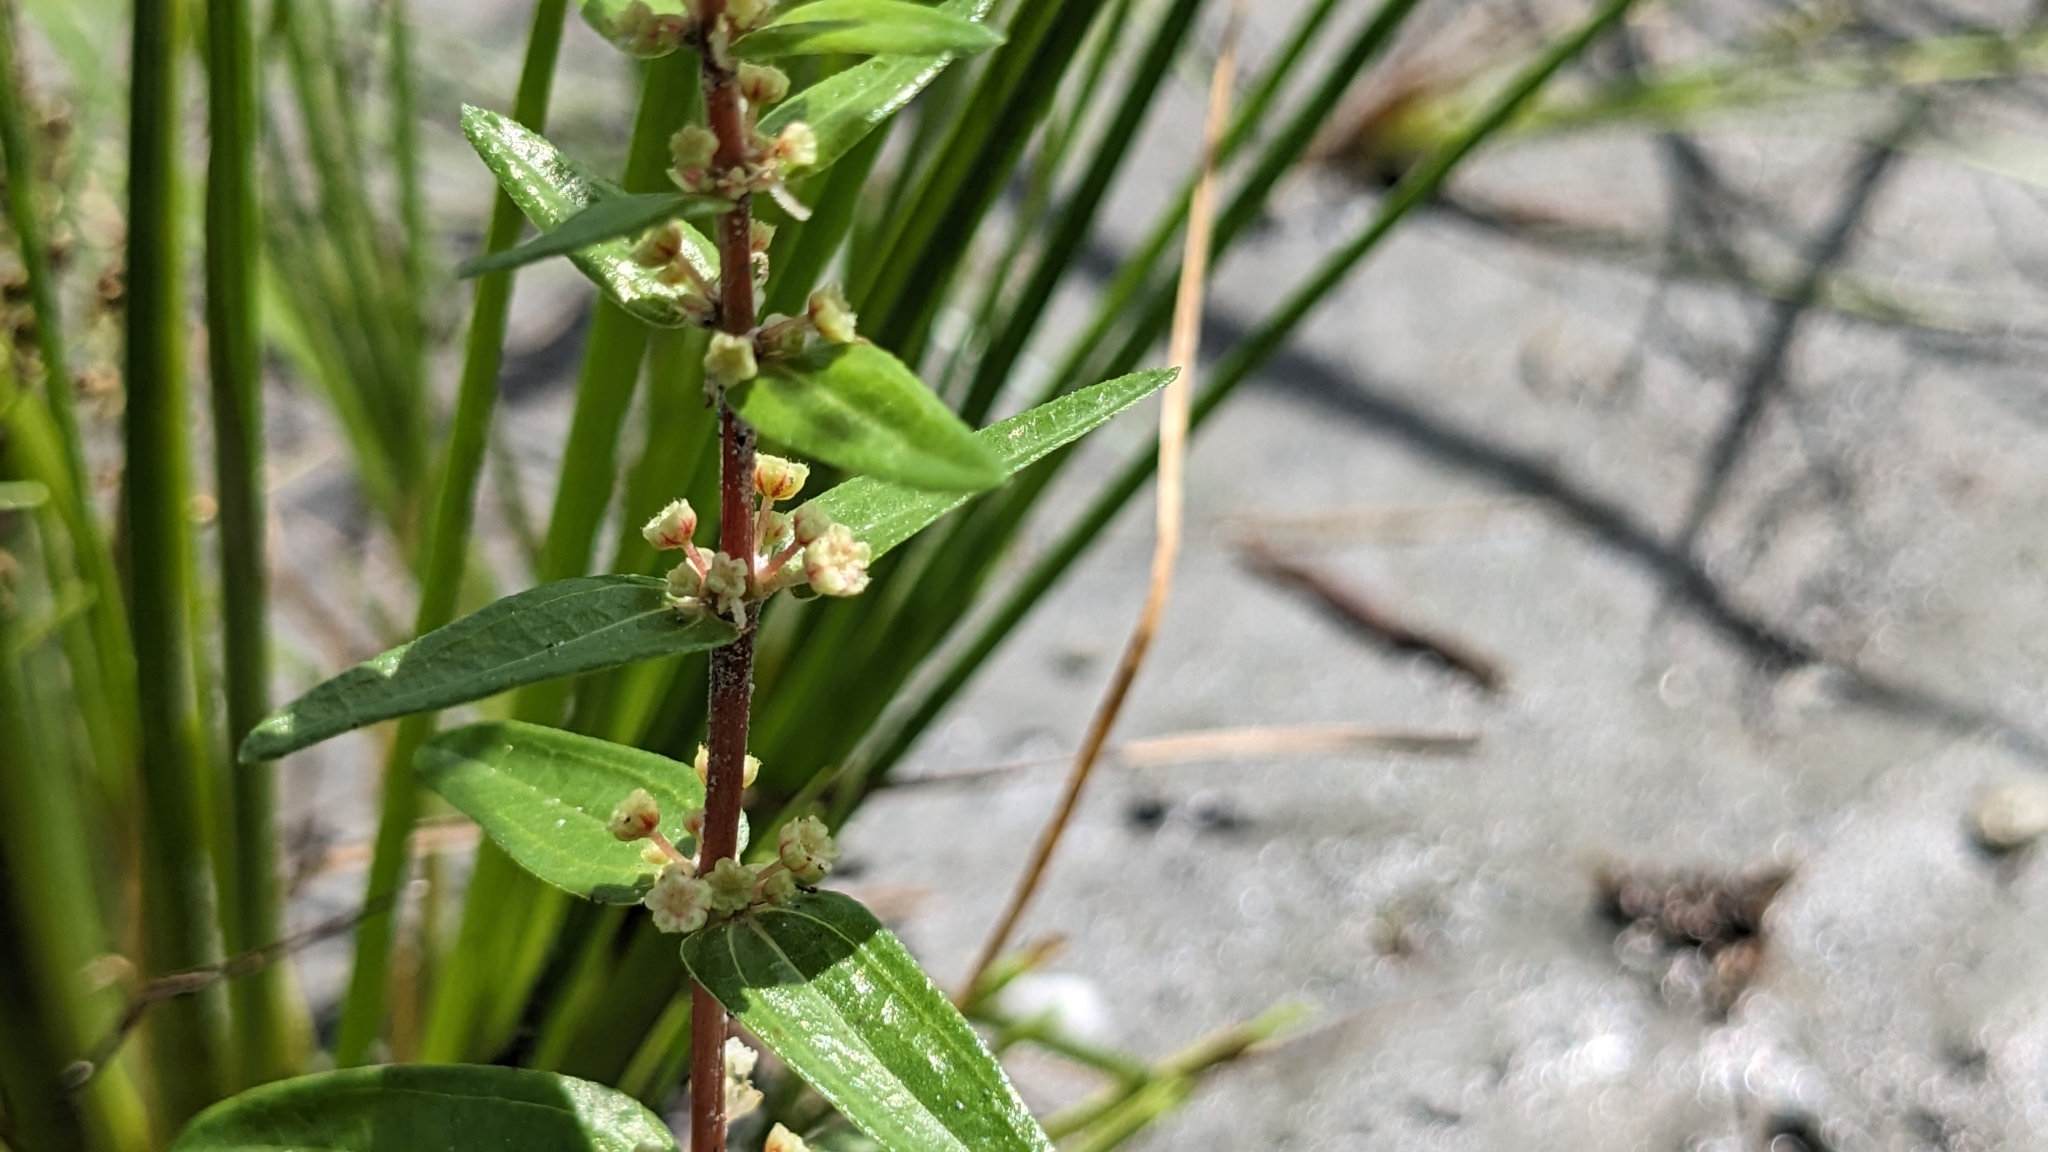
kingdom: Plantae
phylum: Tracheophyta
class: Magnoliopsida
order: Rosales
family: Urticaceae
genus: Gonostegia
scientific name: Gonostegia pentandra
